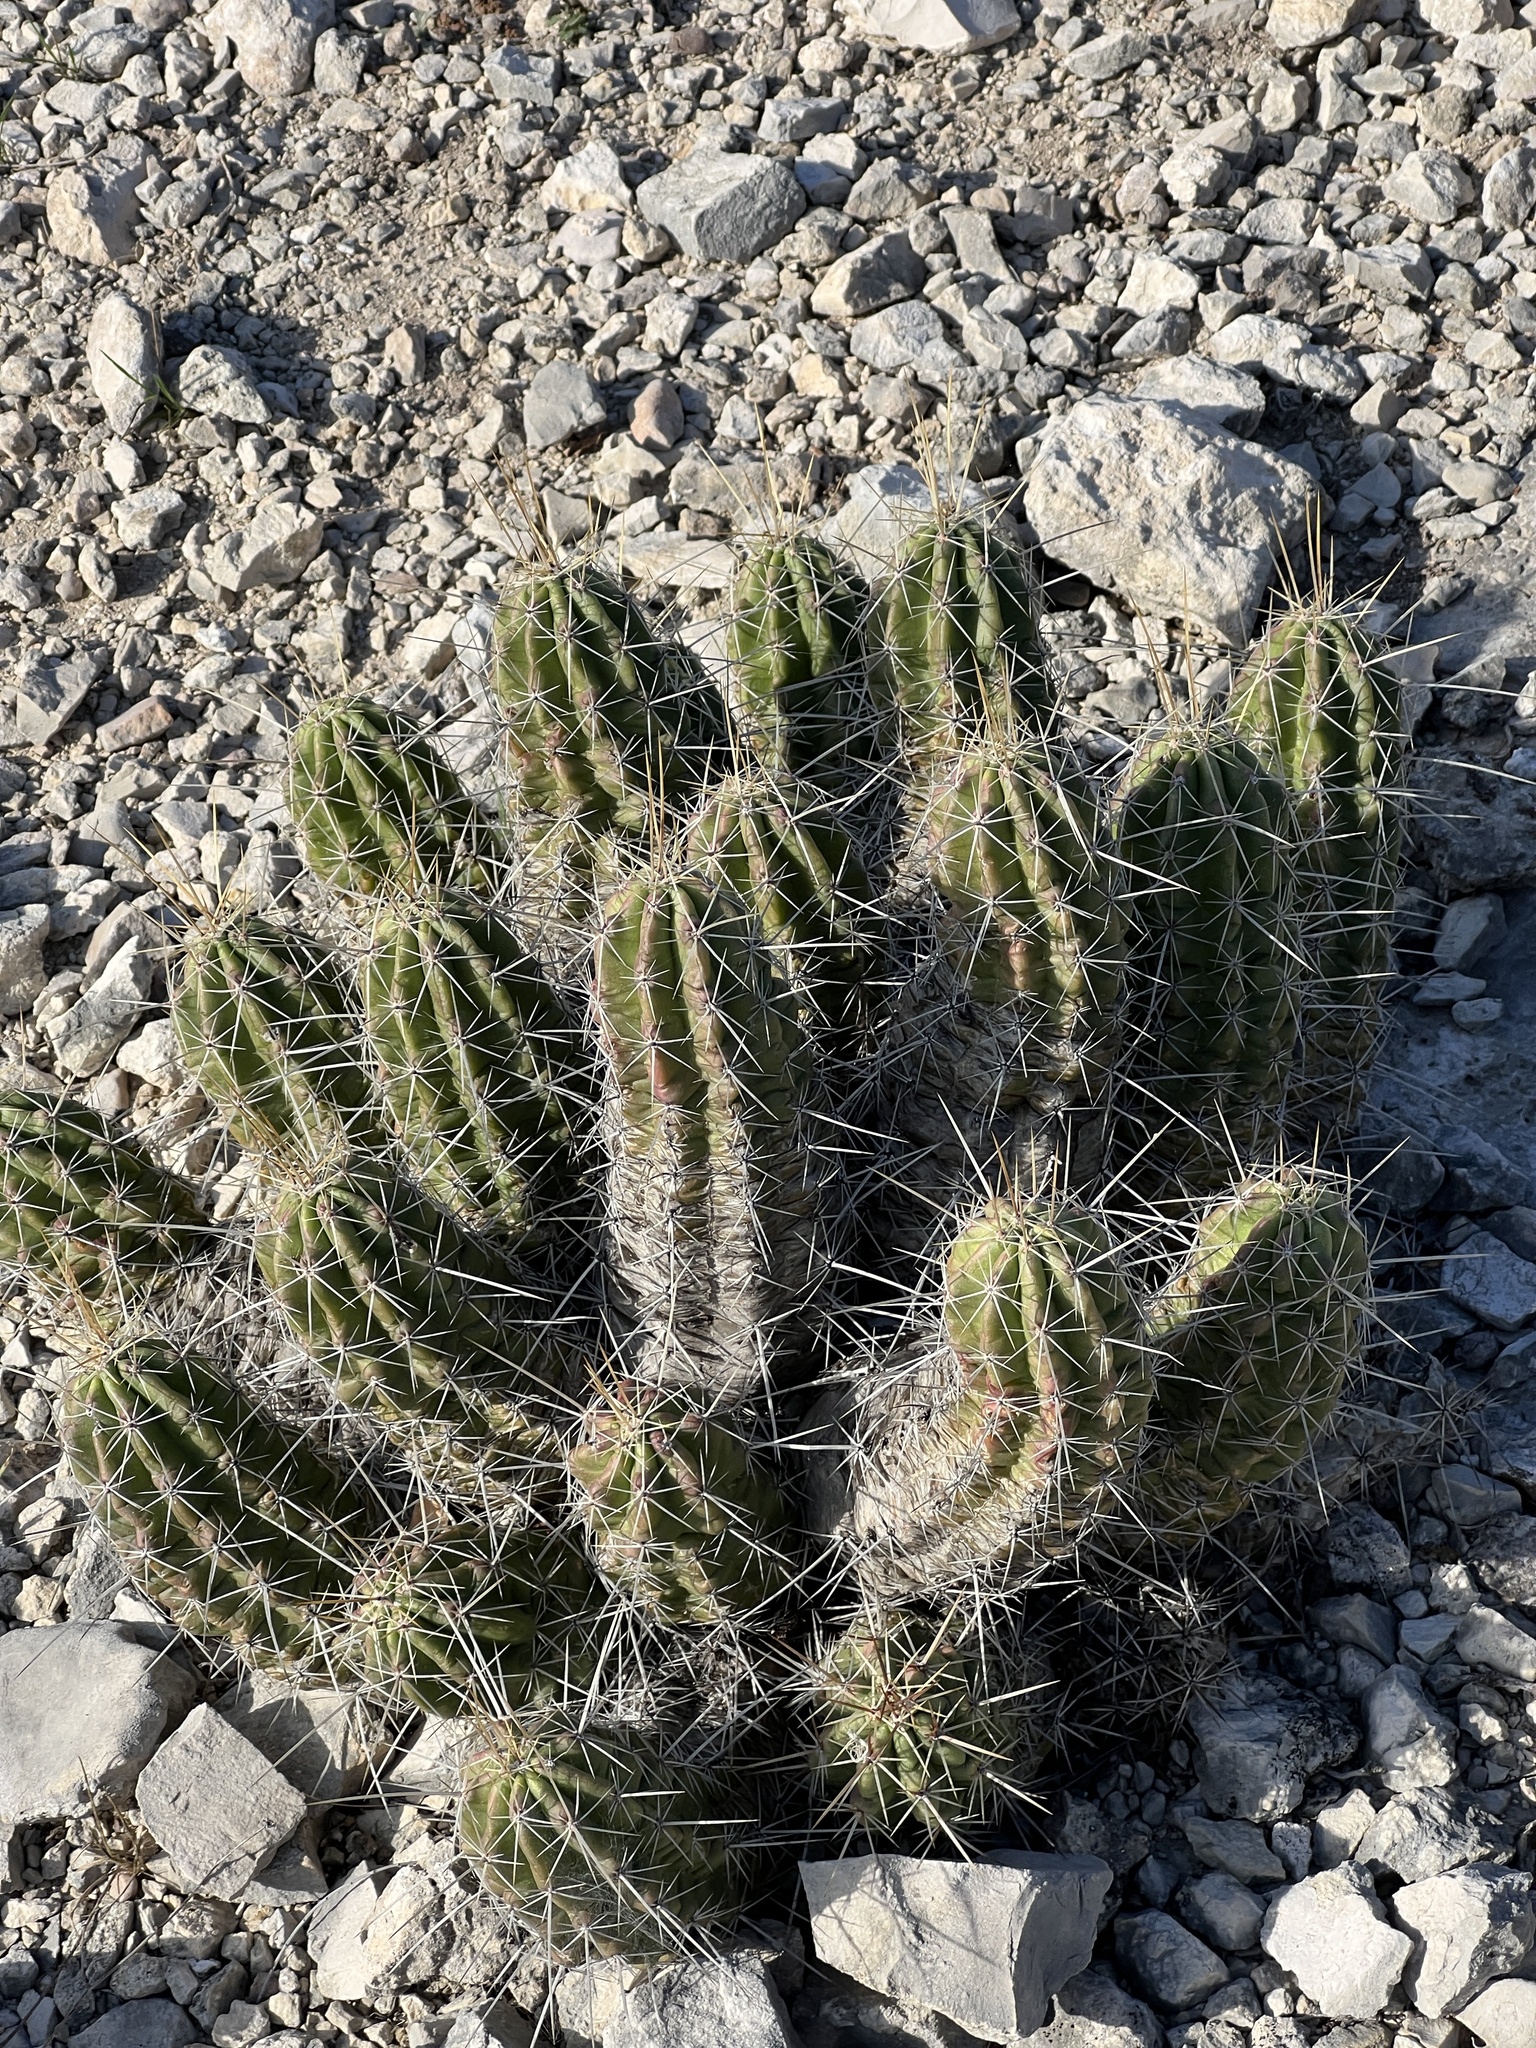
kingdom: Plantae
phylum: Tracheophyta
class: Magnoliopsida
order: Caryophyllales
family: Cactaceae
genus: Echinocereus
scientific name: Echinocereus enneacanthus
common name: Pitaya
